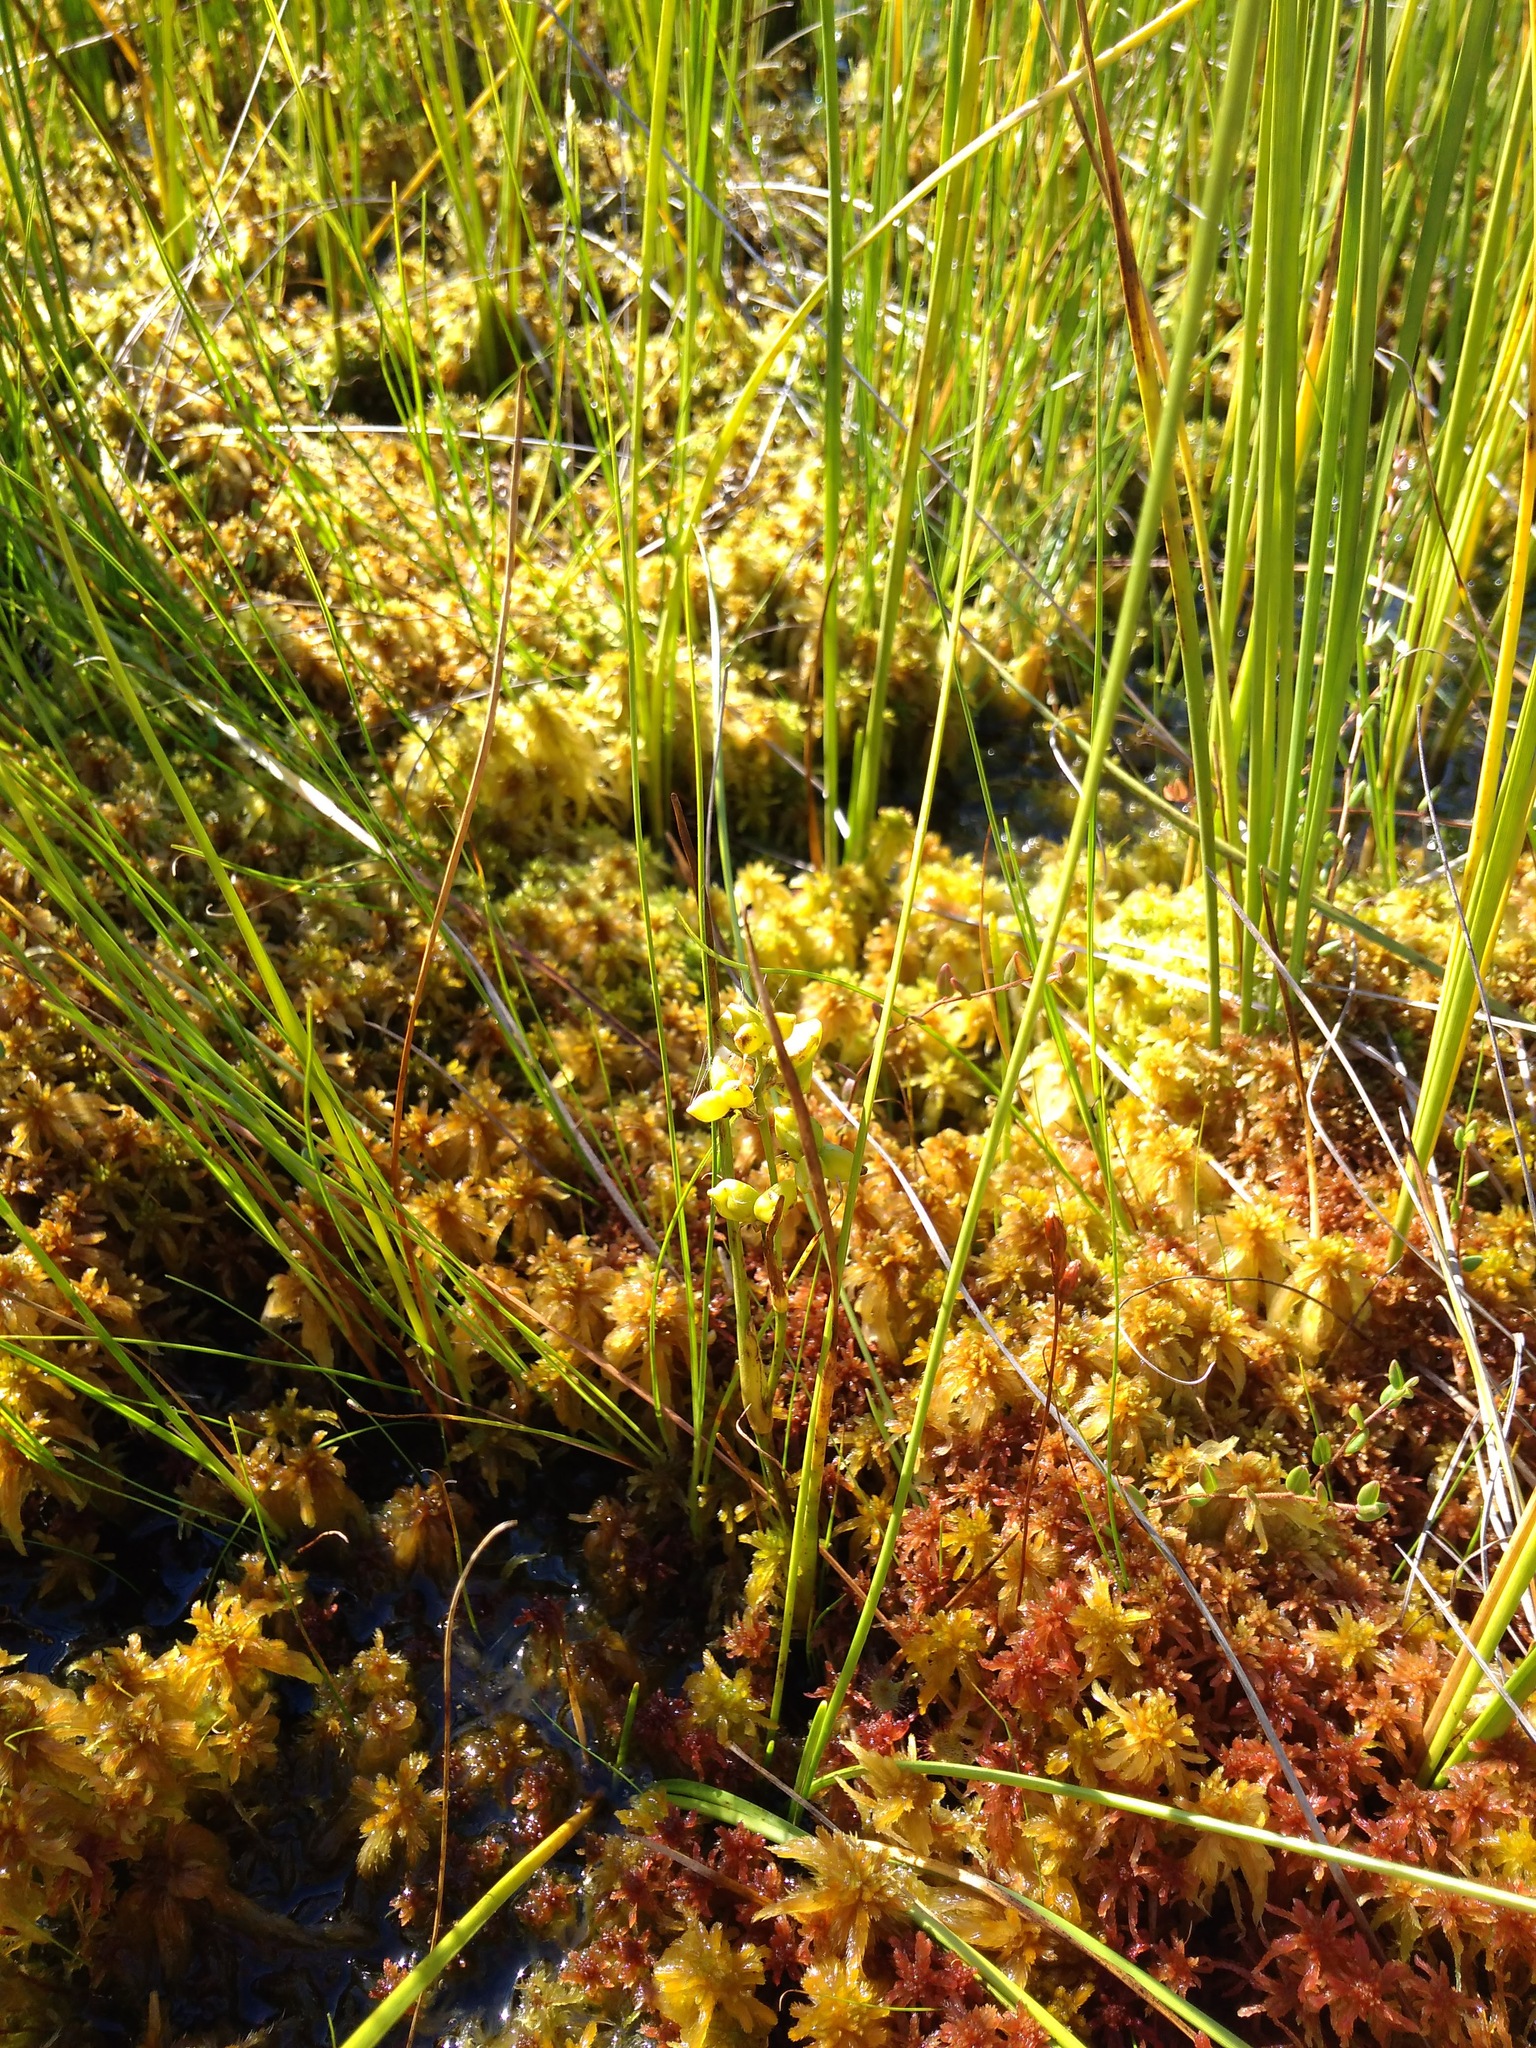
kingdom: Plantae
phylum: Tracheophyta
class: Liliopsida
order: Alismatales
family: Scheuchzeriaceae
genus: Scheuchzeria
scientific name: Scheuchzeria palustris
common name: Rannoch-rush
